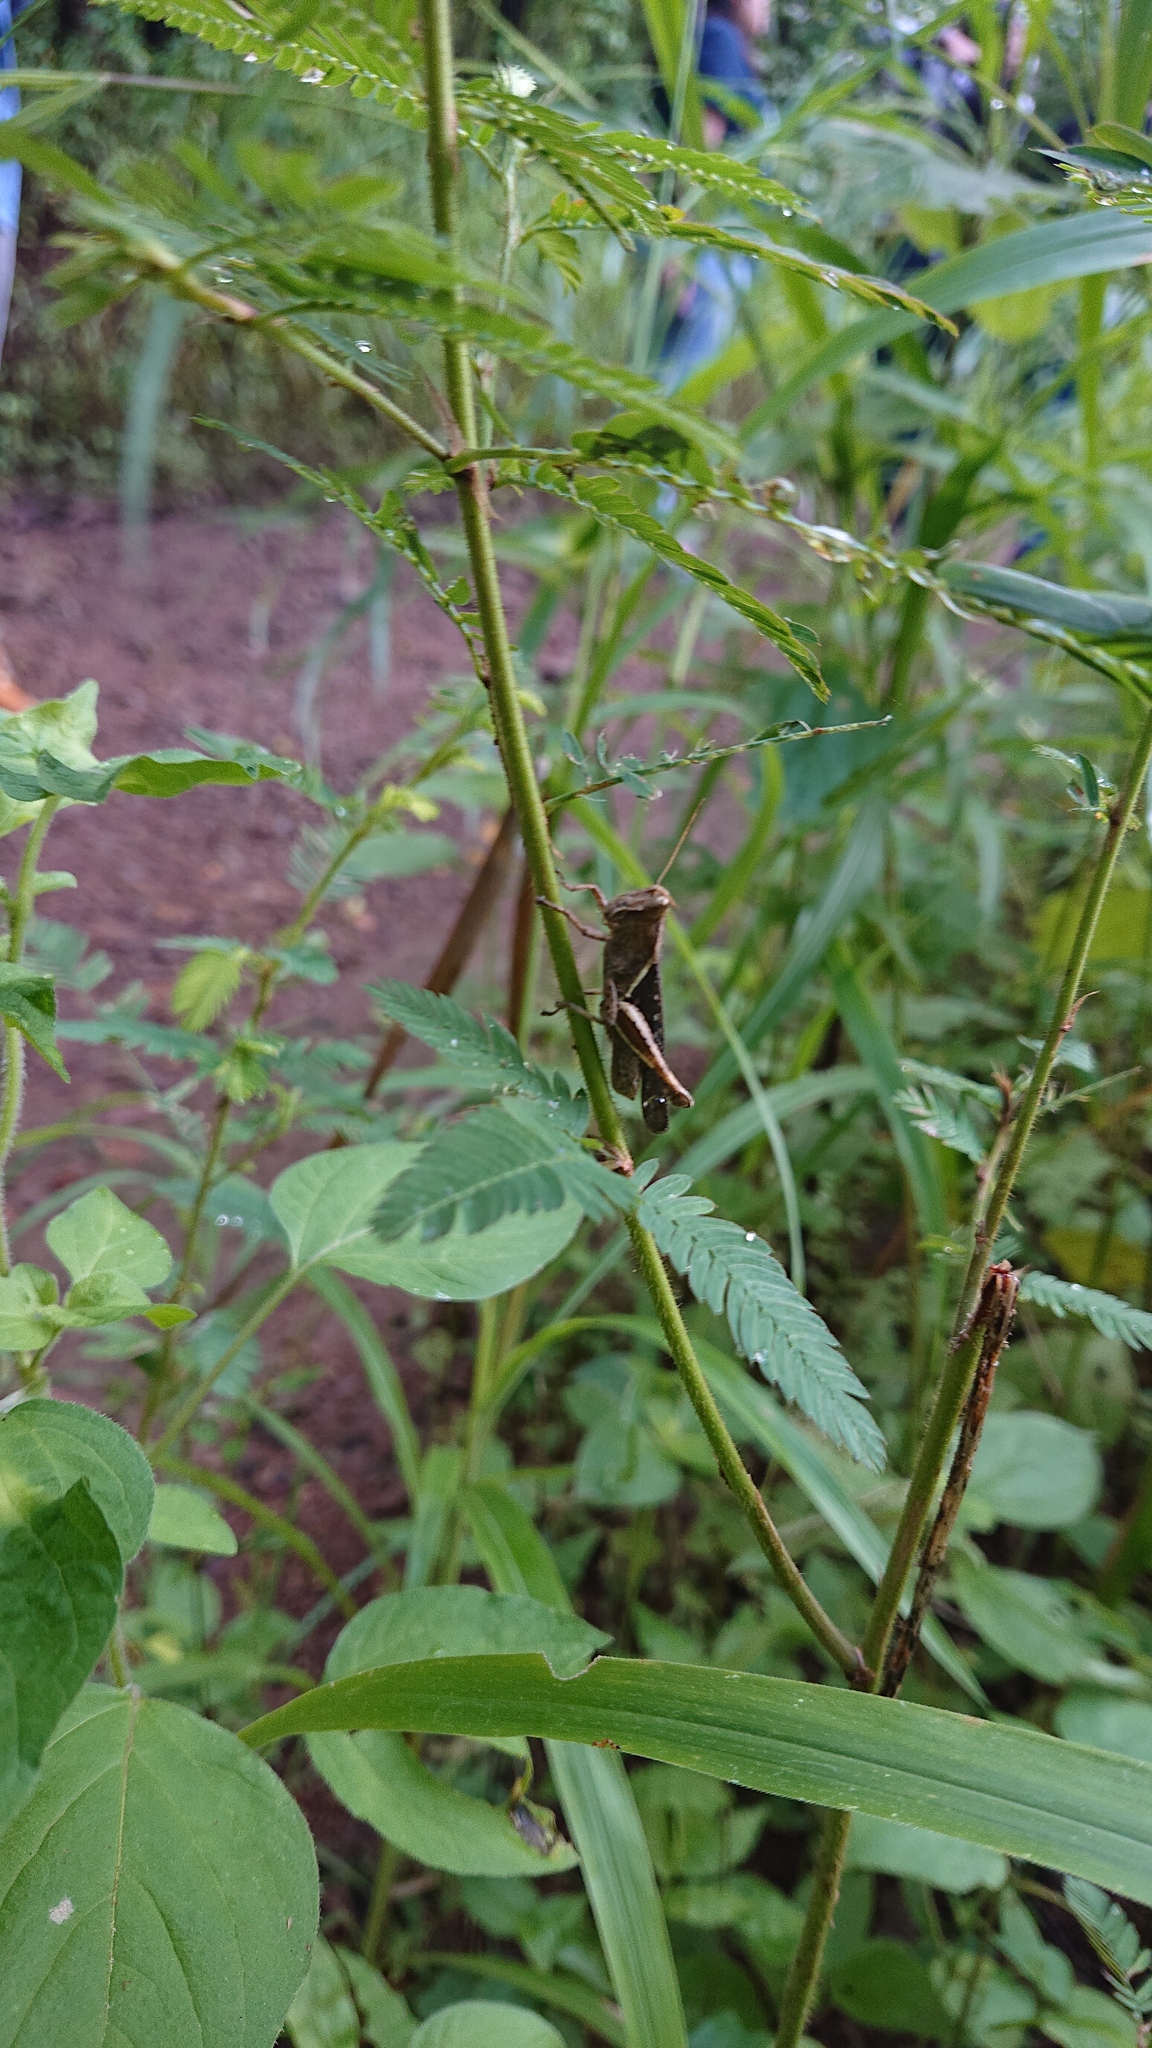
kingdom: Animalia
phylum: Arthropoda
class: Insecta
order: Orthoptera
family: Acrididae
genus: Abracris
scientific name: Abracris flavolineata
